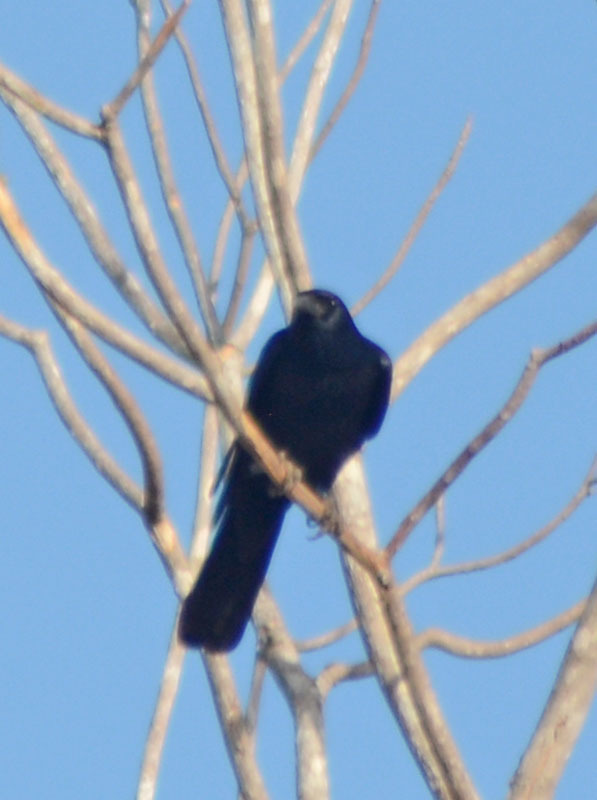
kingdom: Animalia
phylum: Chordata
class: Aves
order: Passeriformes
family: Corvidae
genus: Corvus
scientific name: Corvus sinaloae
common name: Sinaloa crow
